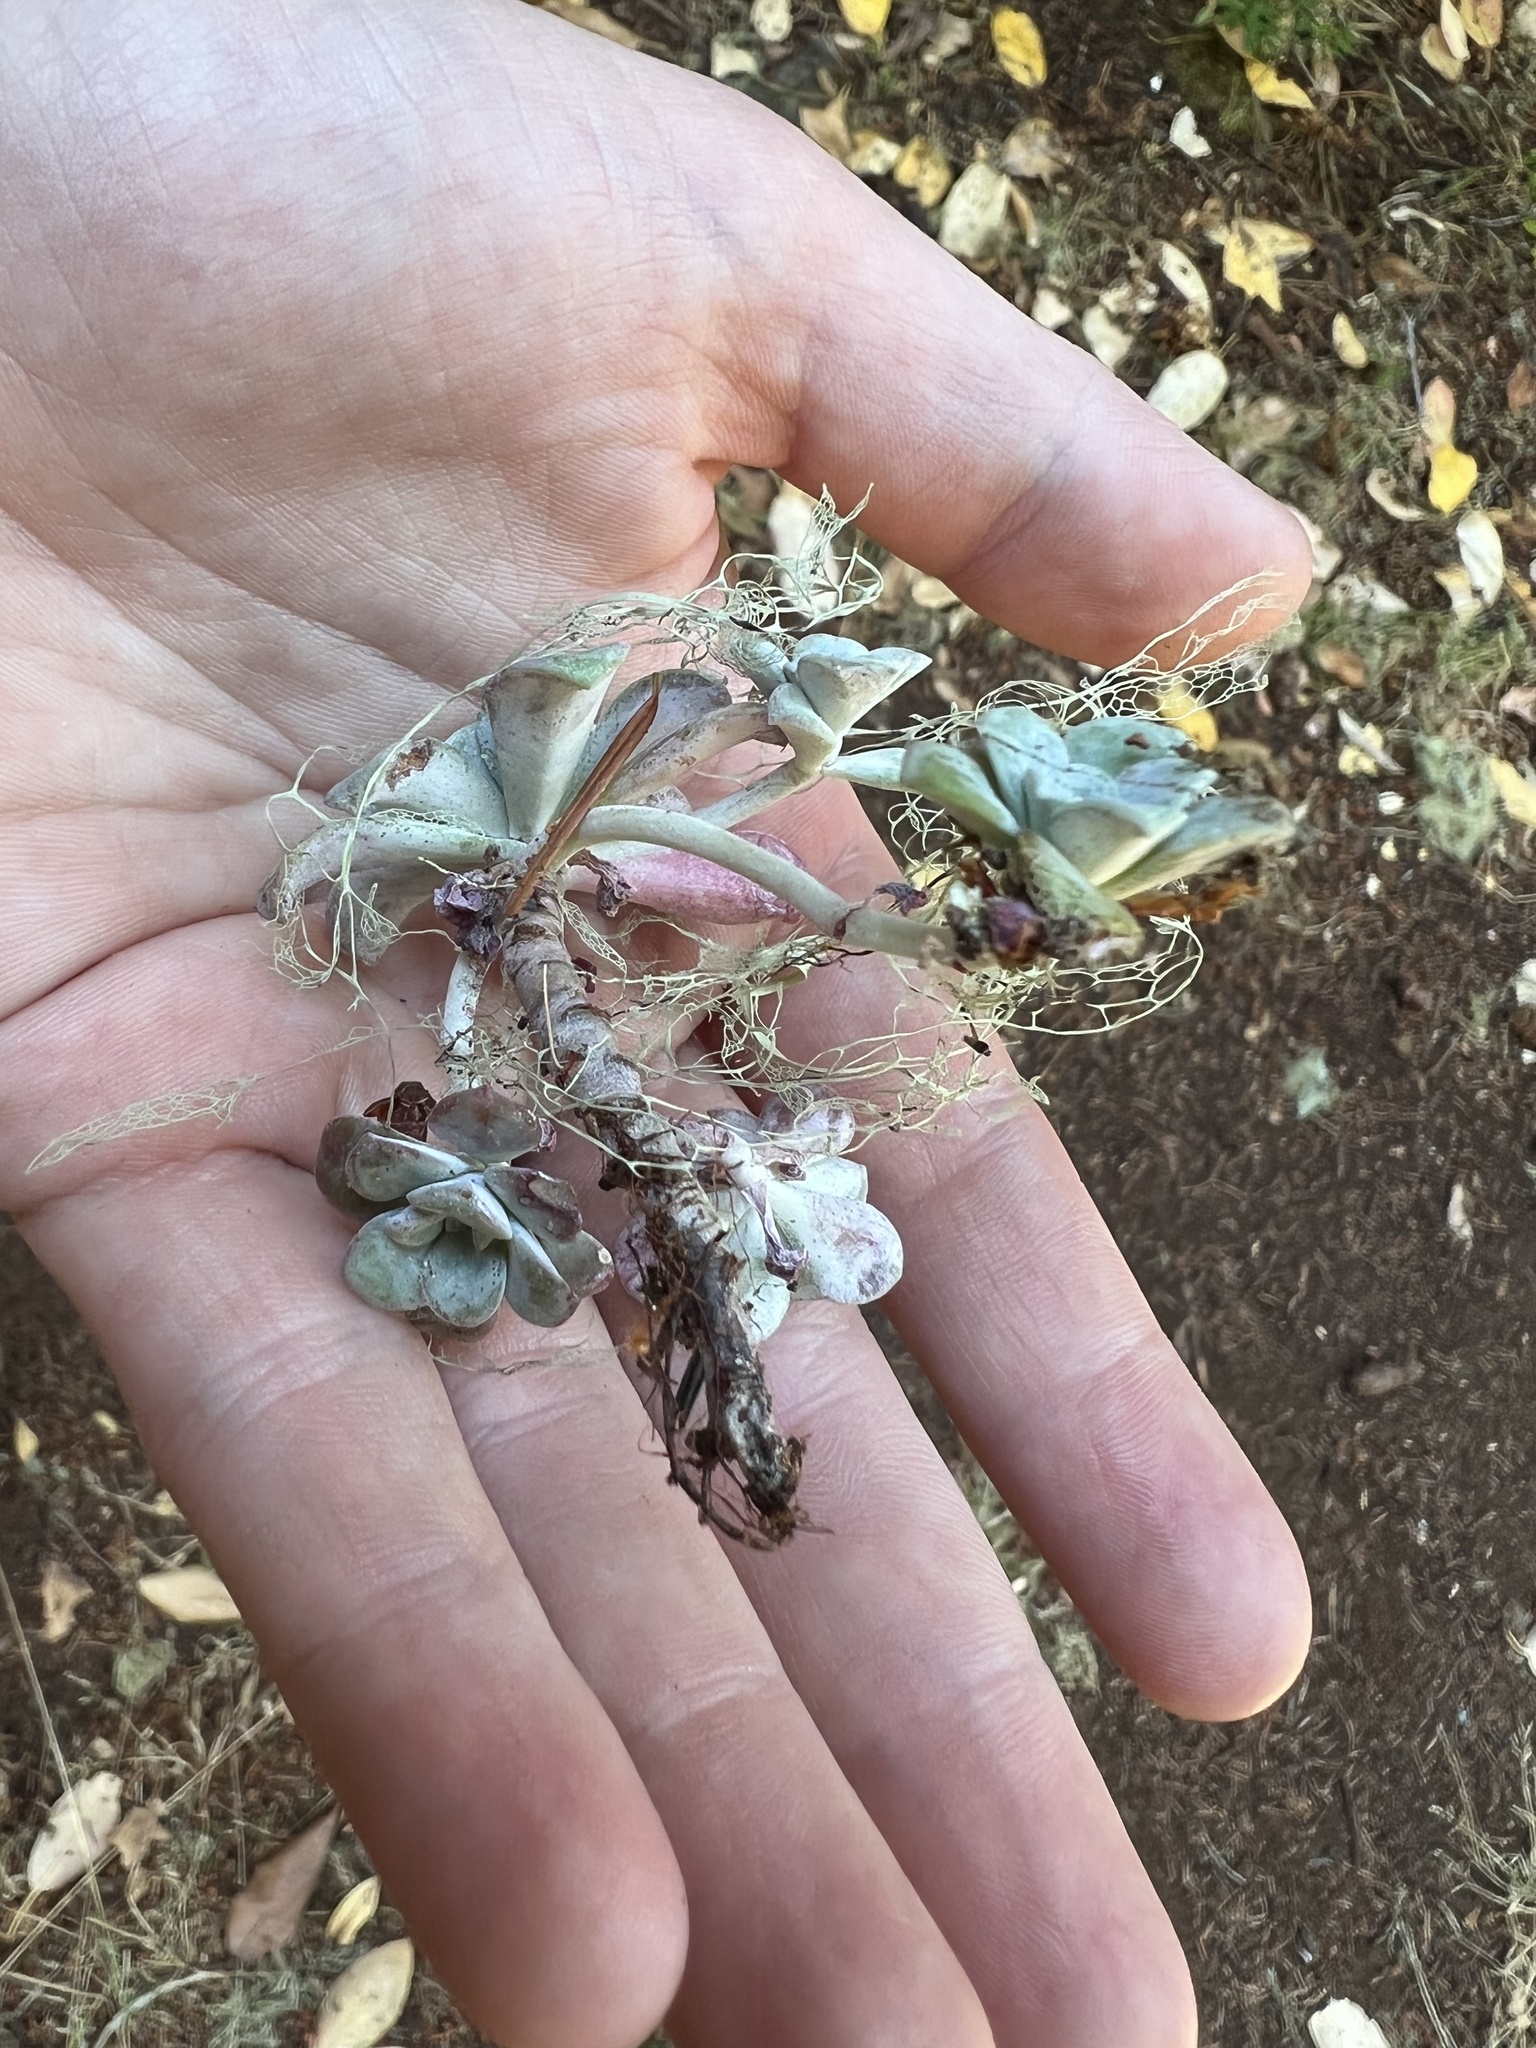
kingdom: Plantae
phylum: Tracheophyta
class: Magnoliopsida
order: Saxifragales
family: Crassulaceae
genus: Sedum
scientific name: Sedum spathulifolium
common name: Colorado stonecrop
